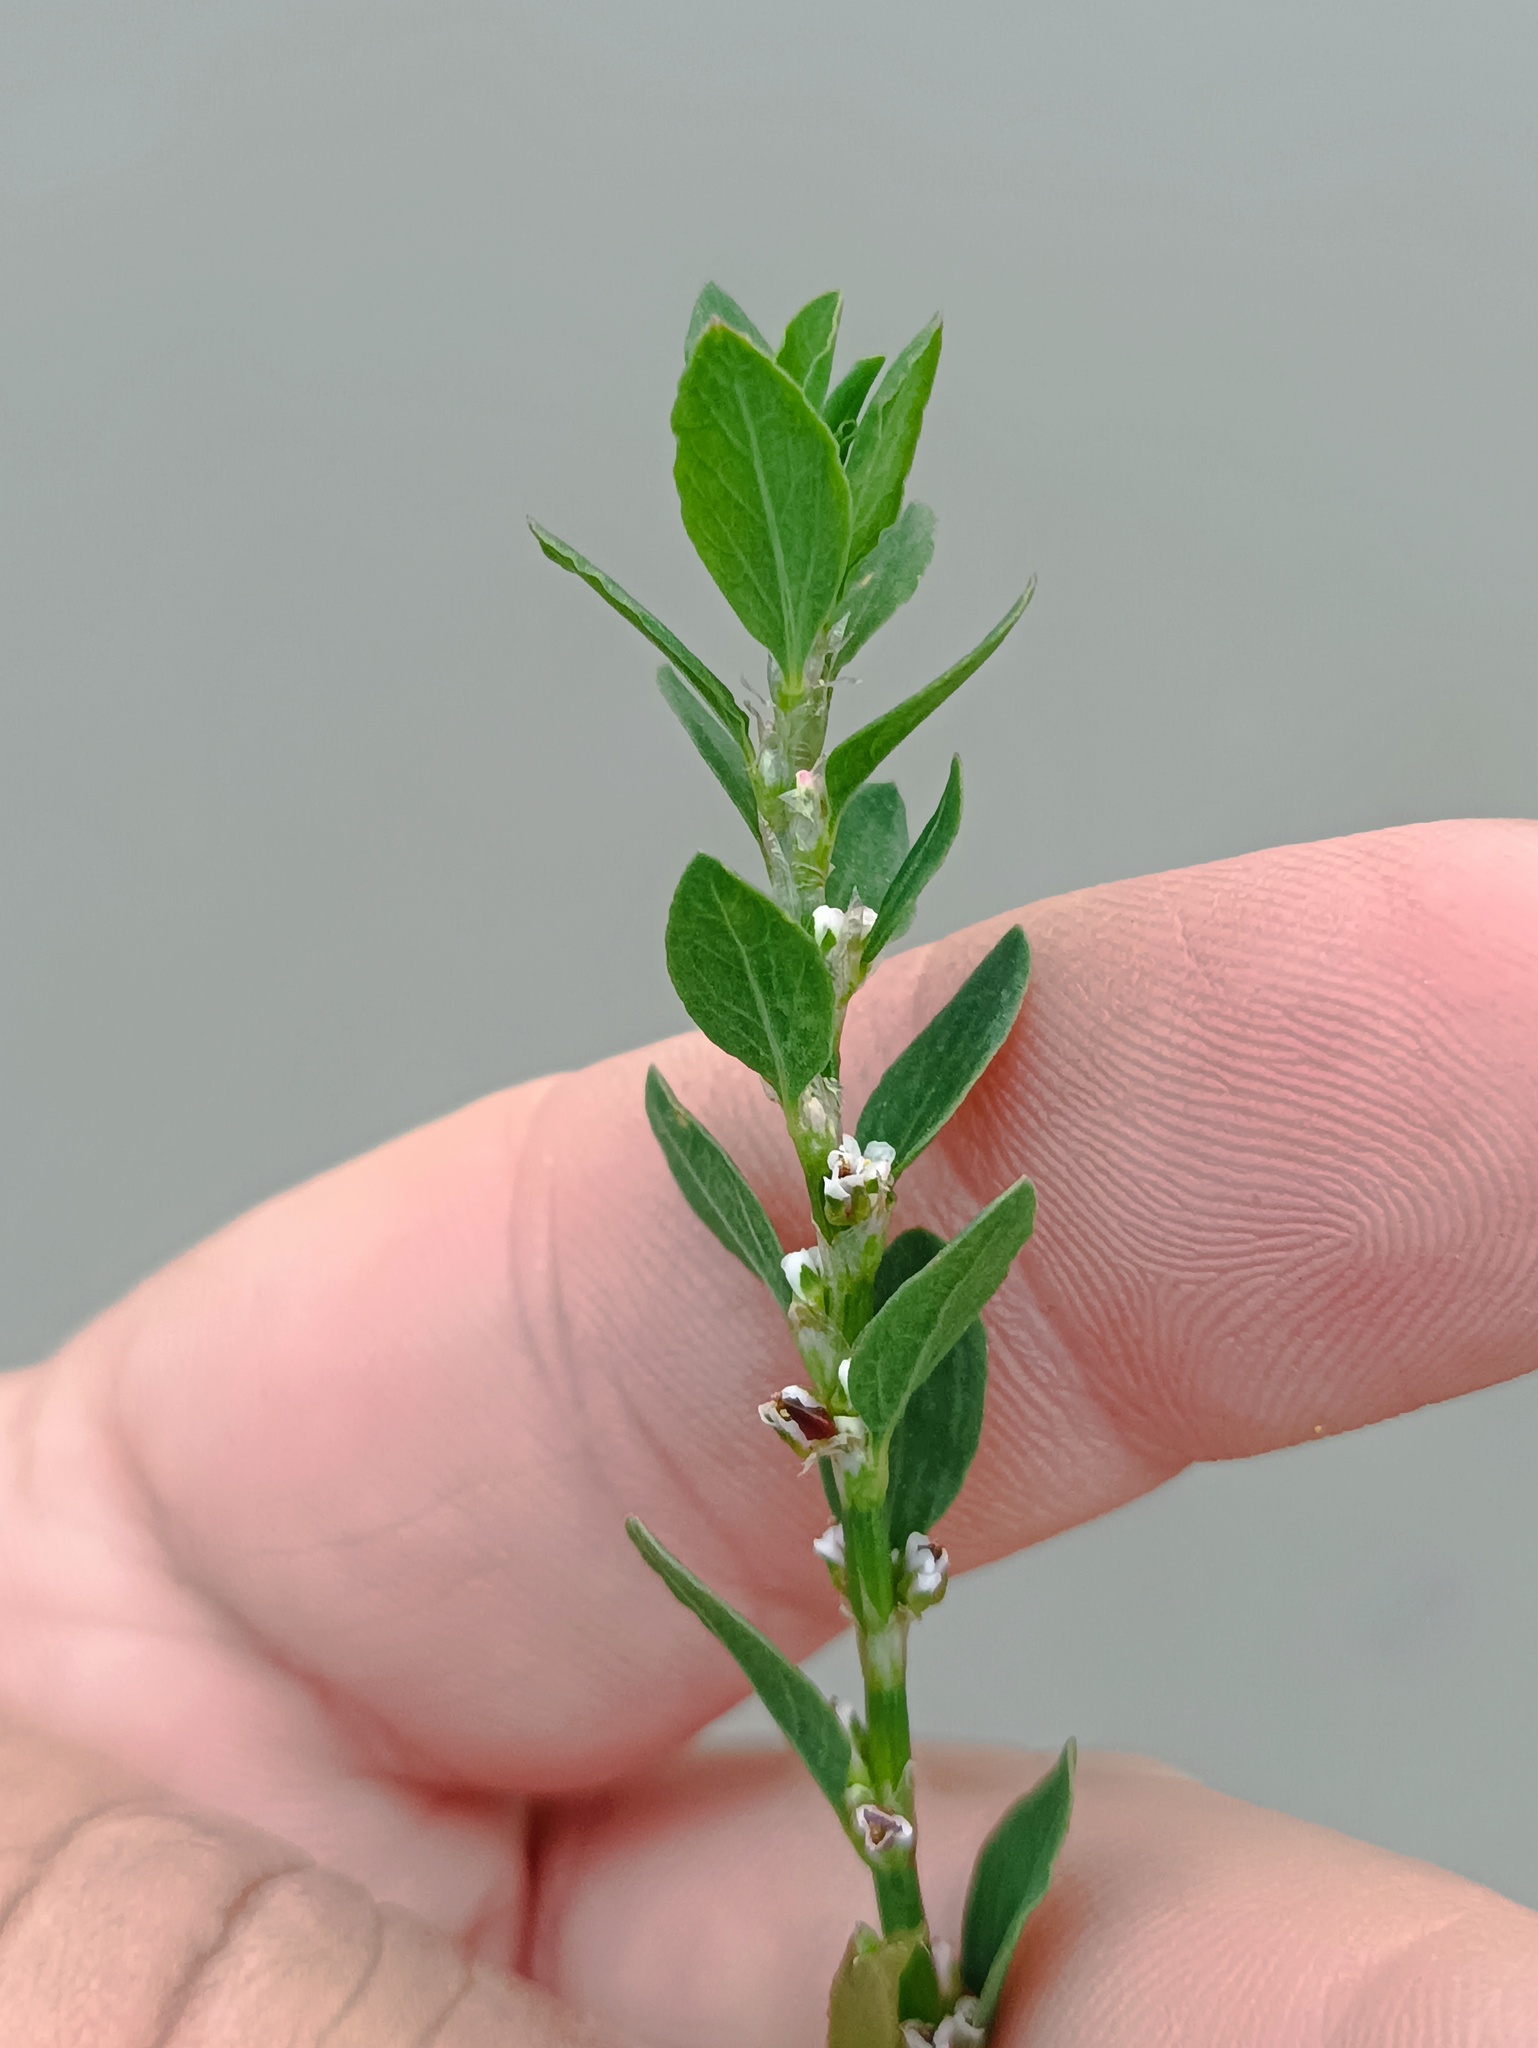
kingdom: Plantae
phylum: Tracheophyta
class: Magnoliopsida
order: Caryophyllales
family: Polygonaceae
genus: Polygonum
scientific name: Polygonum
